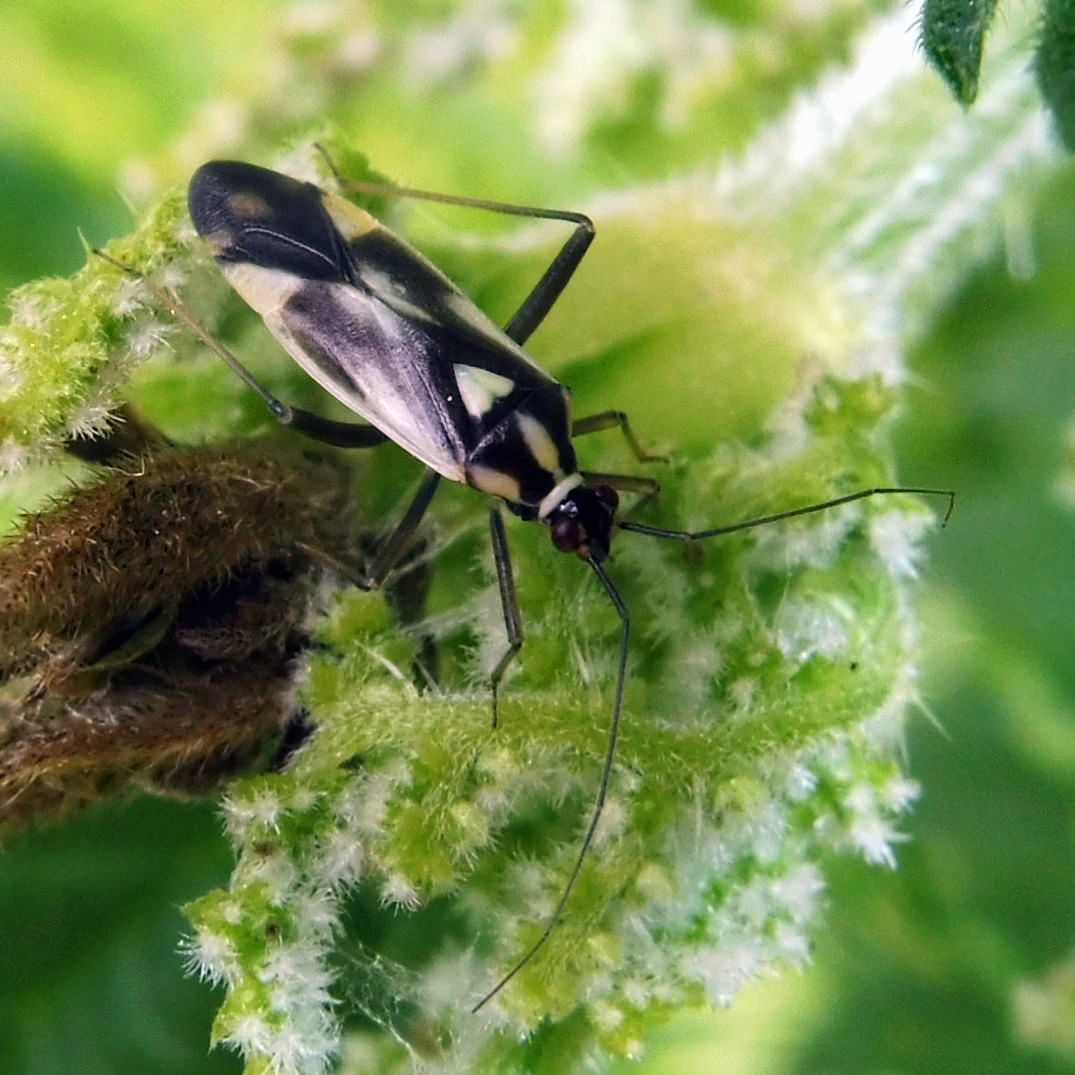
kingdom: Animalia
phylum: Arthropoda
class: Insecta
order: Hemiptera
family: Miridae
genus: Grypocoris
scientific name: Grypocoris stysi
